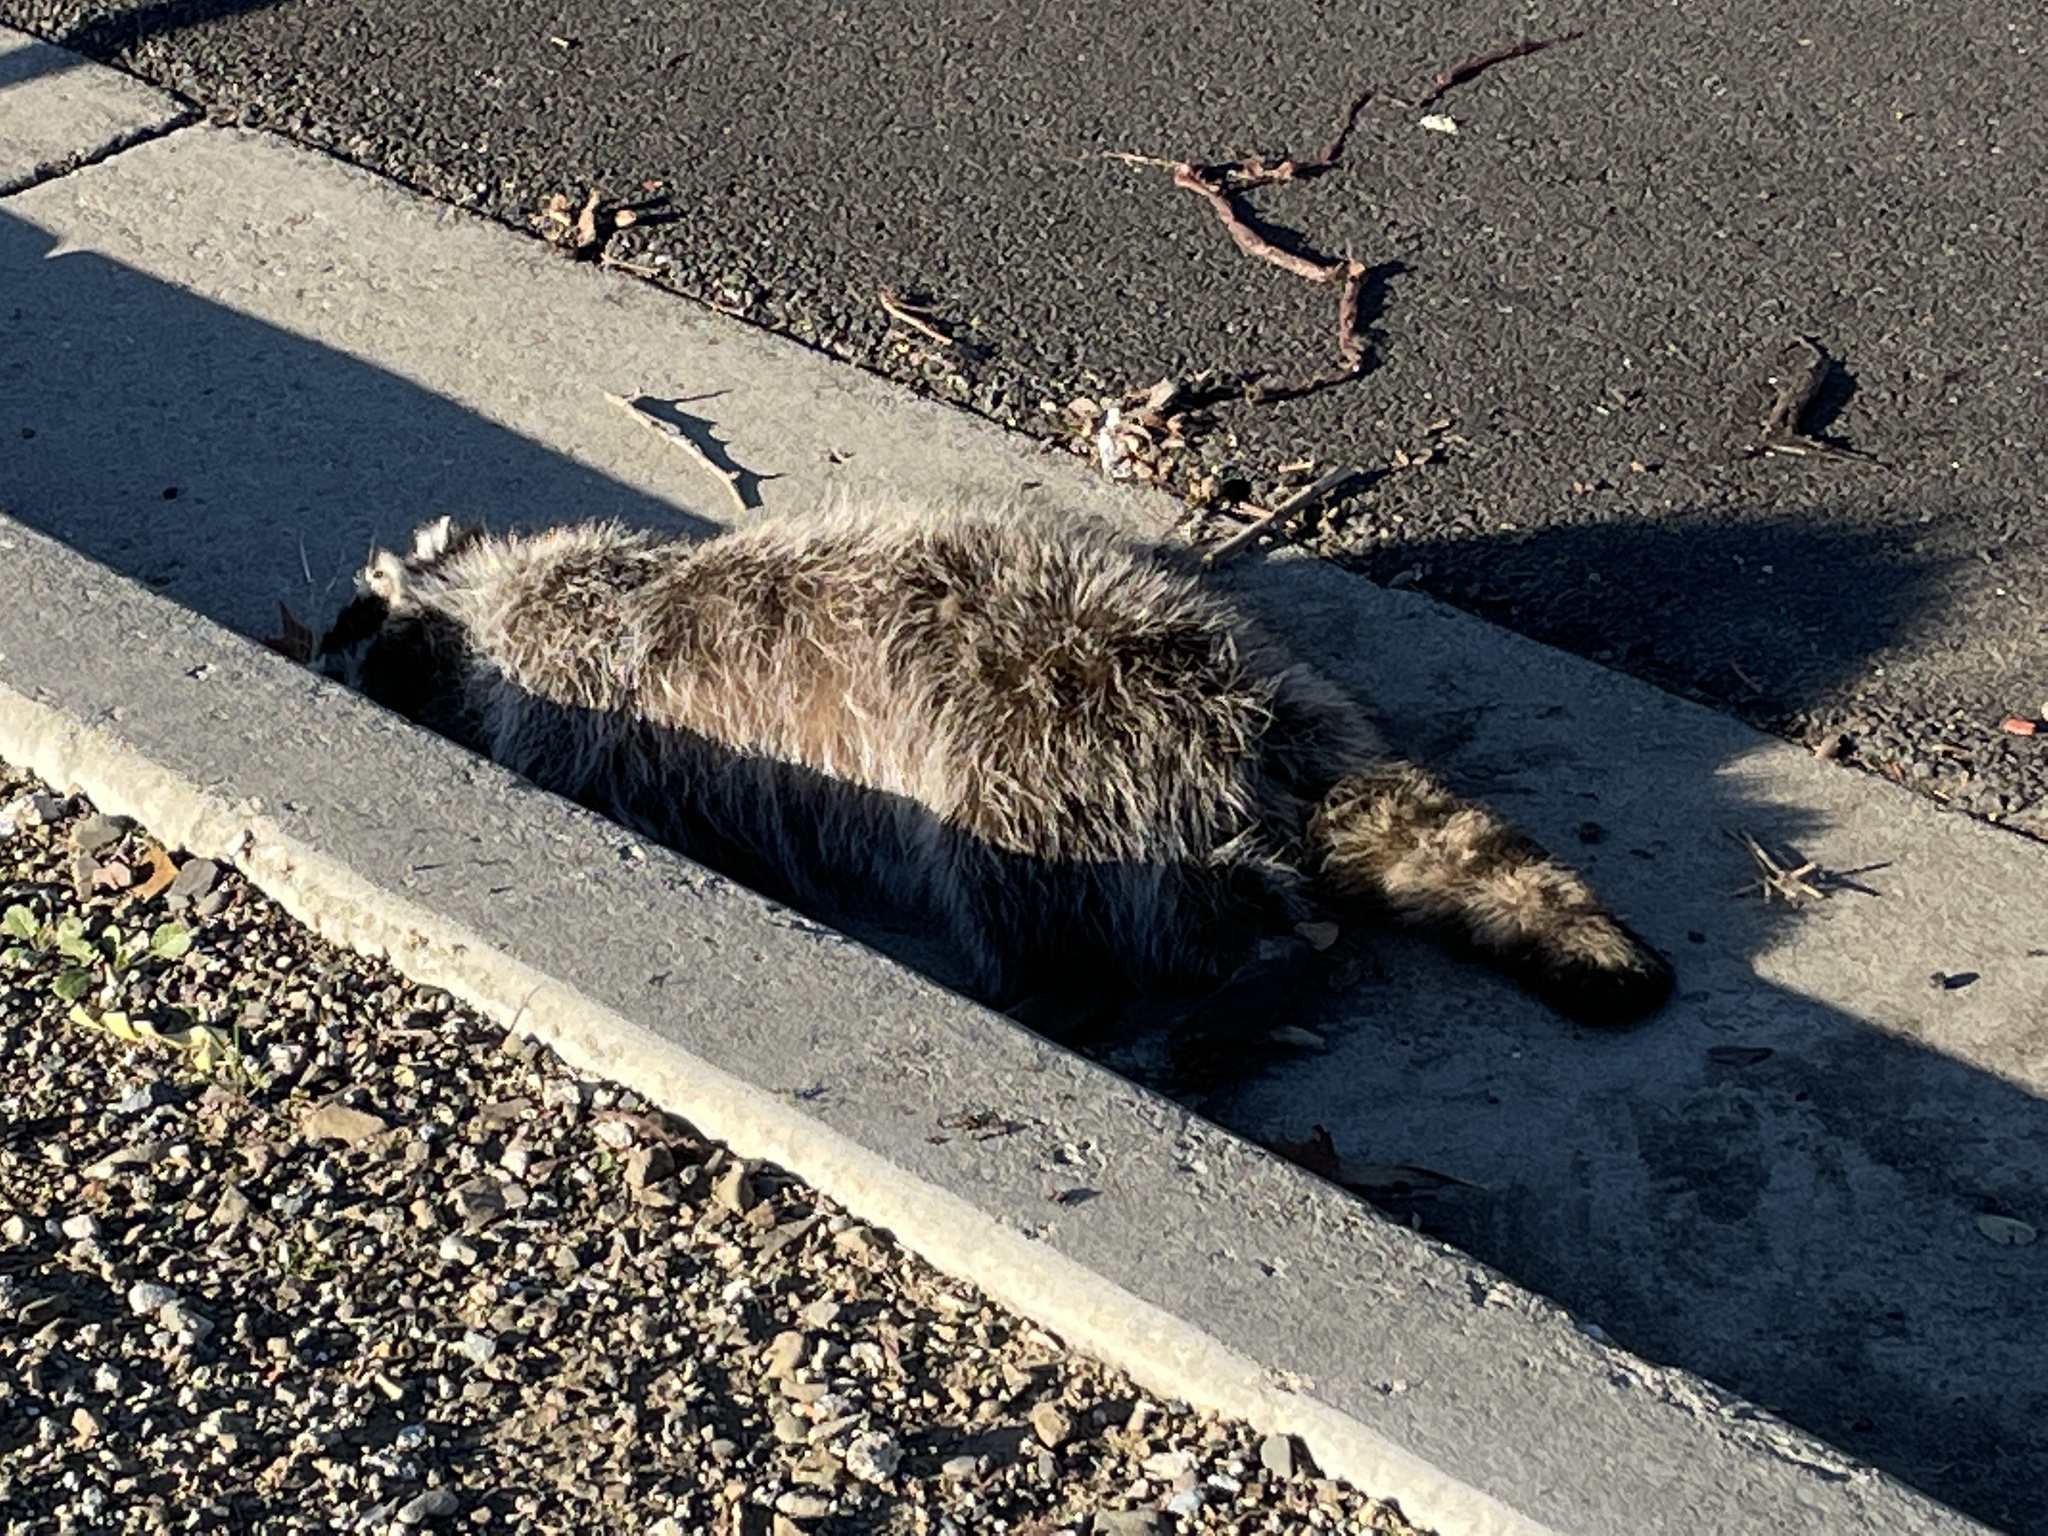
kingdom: Animalia
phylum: Chordata
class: Mammalia
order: Carnivora
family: Procyonidae
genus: Procyon
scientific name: Procyon lotor
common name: Raccoon
